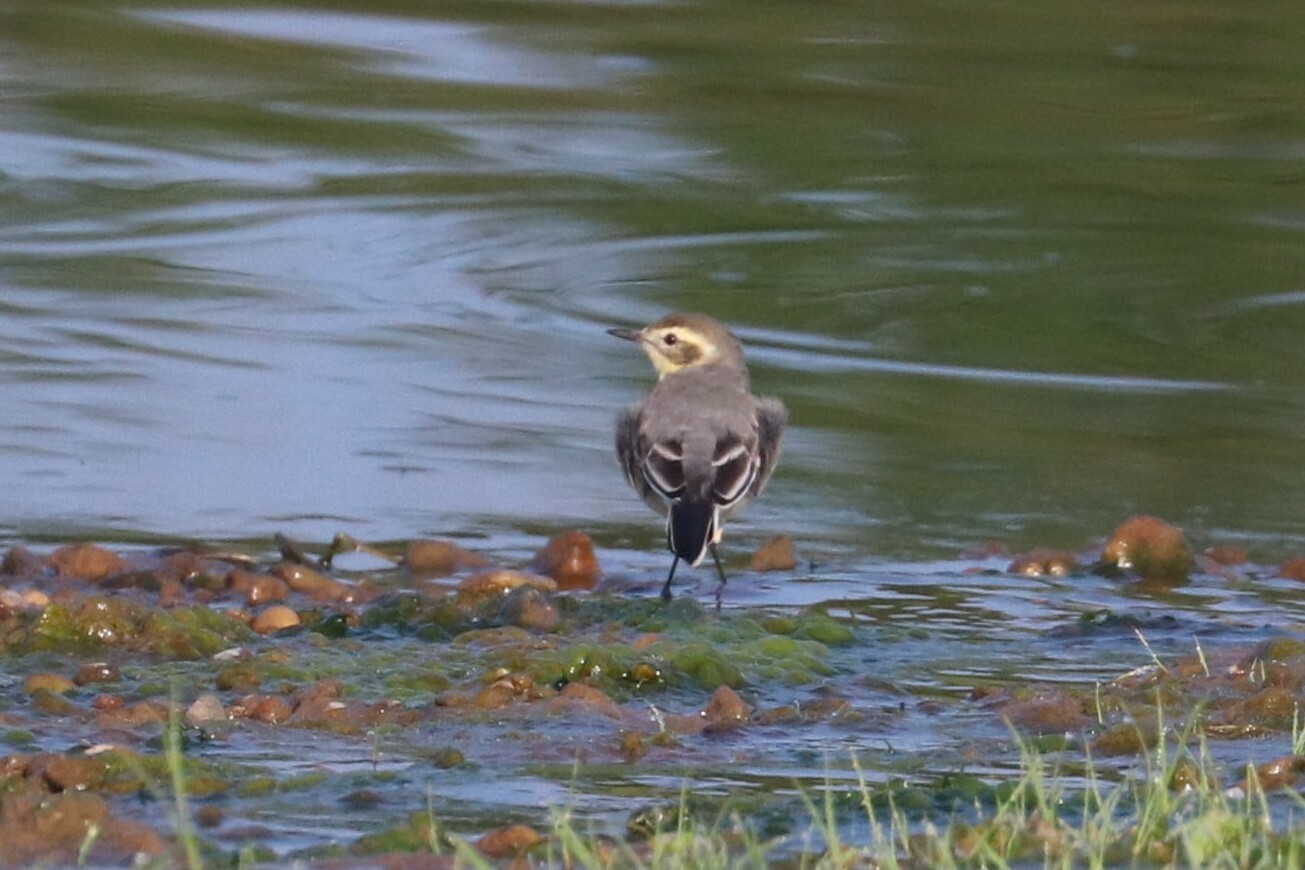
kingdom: Animalia
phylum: Chordata
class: Aves
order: Passeriformes
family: Motacillidae
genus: Motacilla
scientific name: Motacilla citreola
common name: Citrine wagtail
